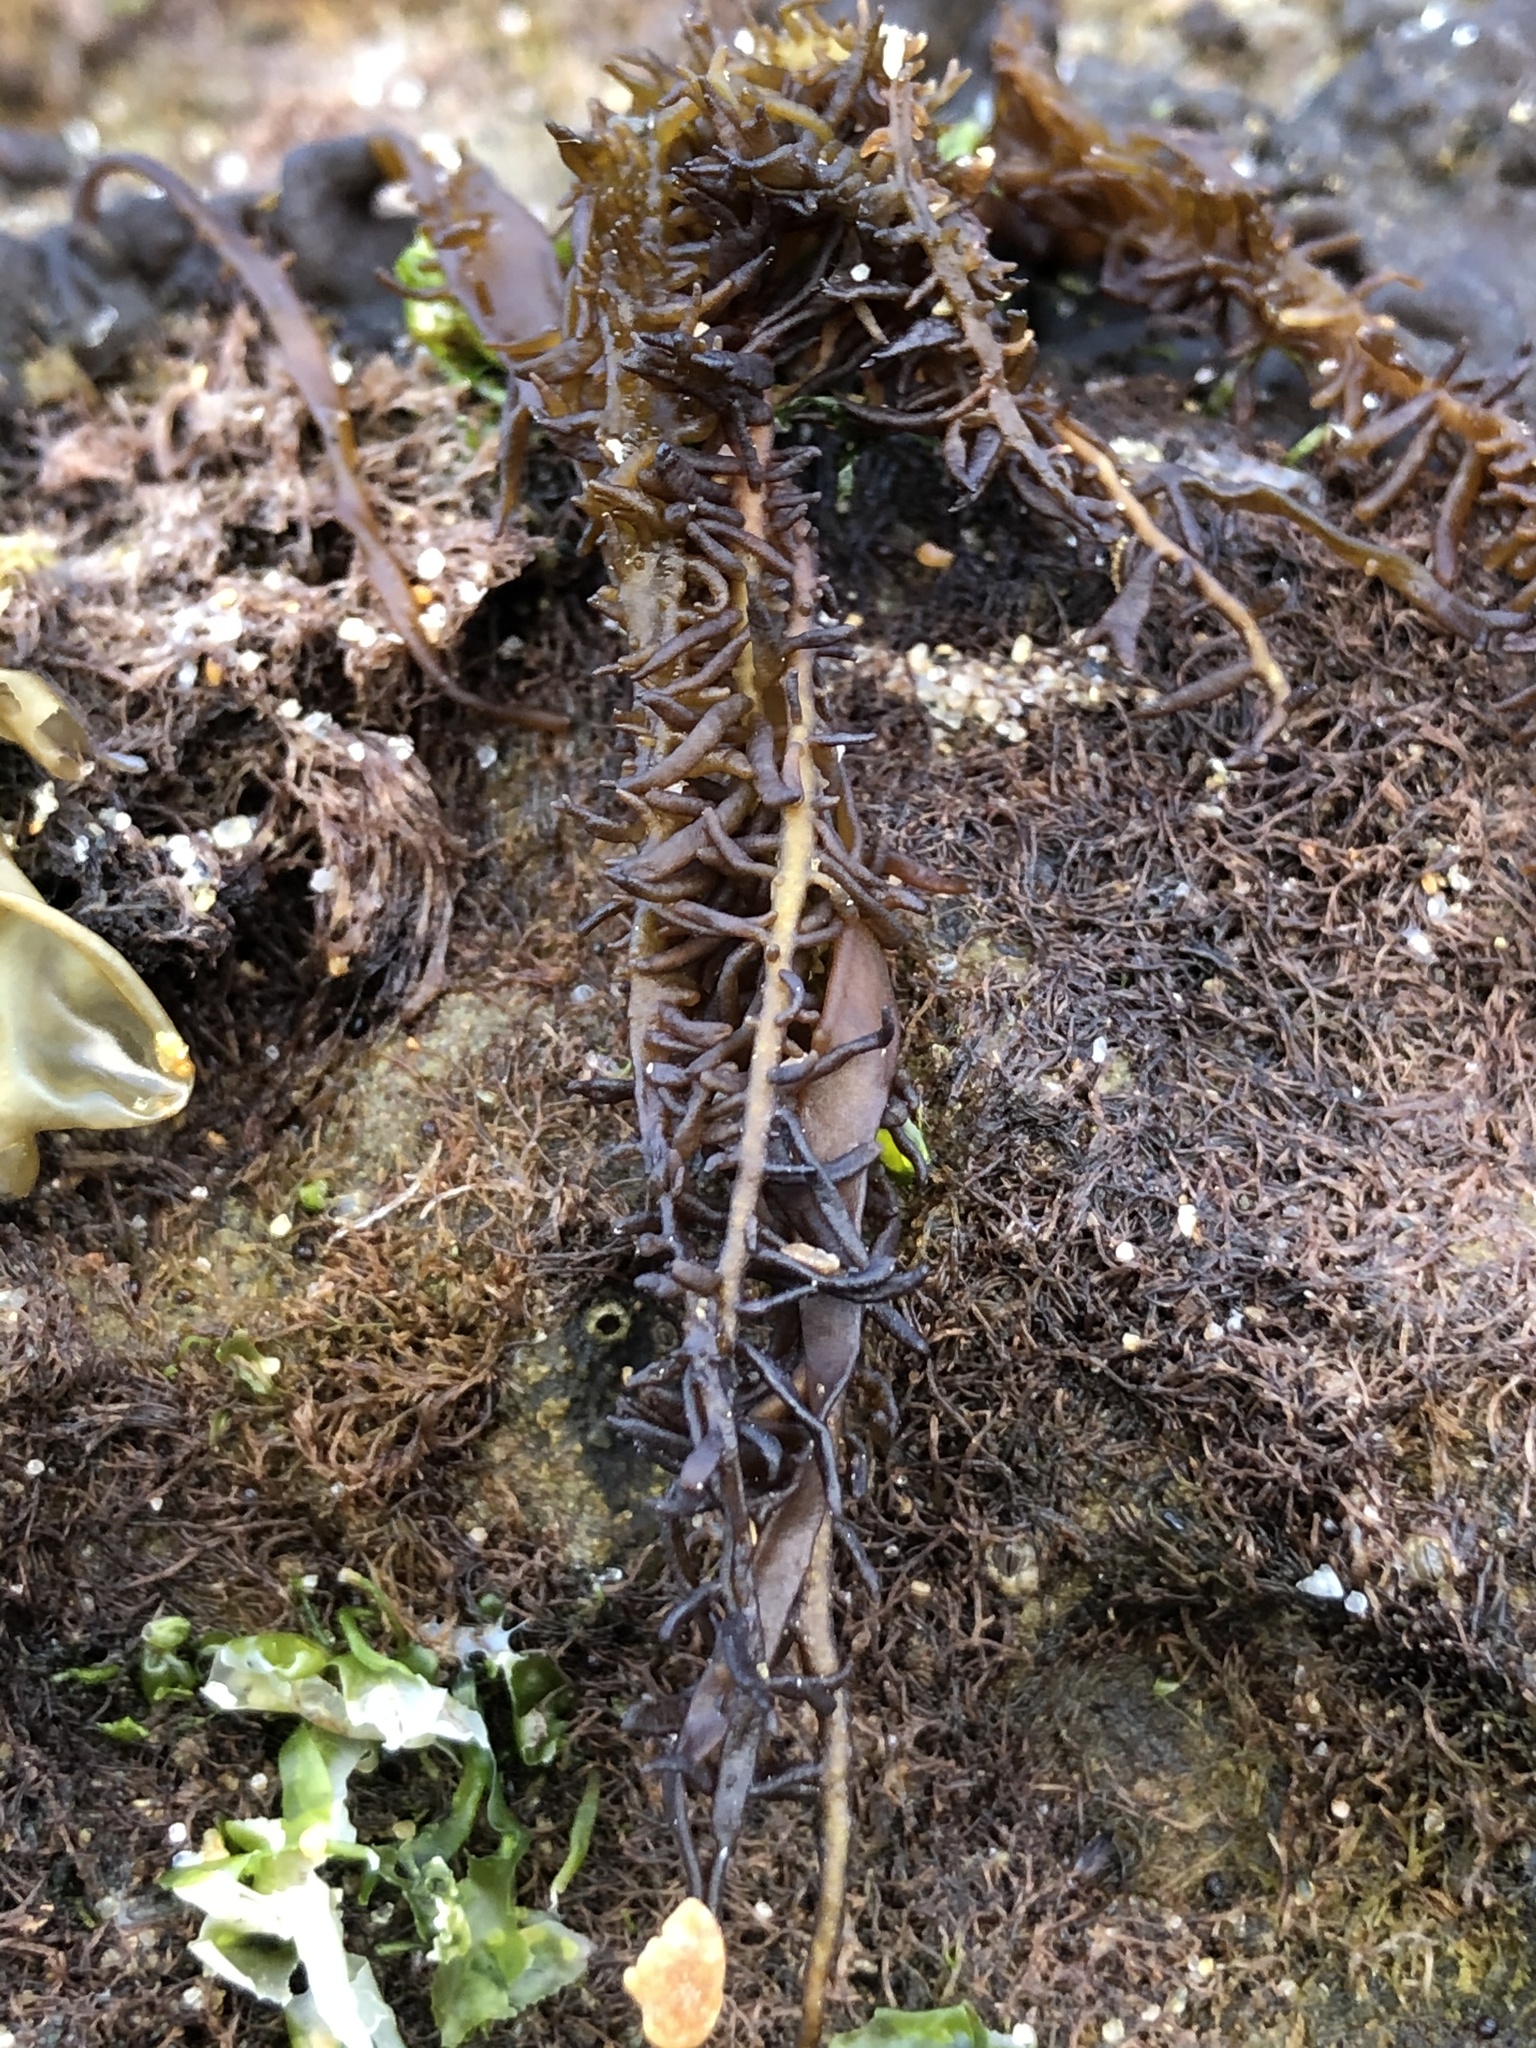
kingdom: Plantae
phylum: Rhodophyta
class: Florideophyceae
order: Nemaliales
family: Liagoraceae
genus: Cumagloia
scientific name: Cumagloia andersonii
